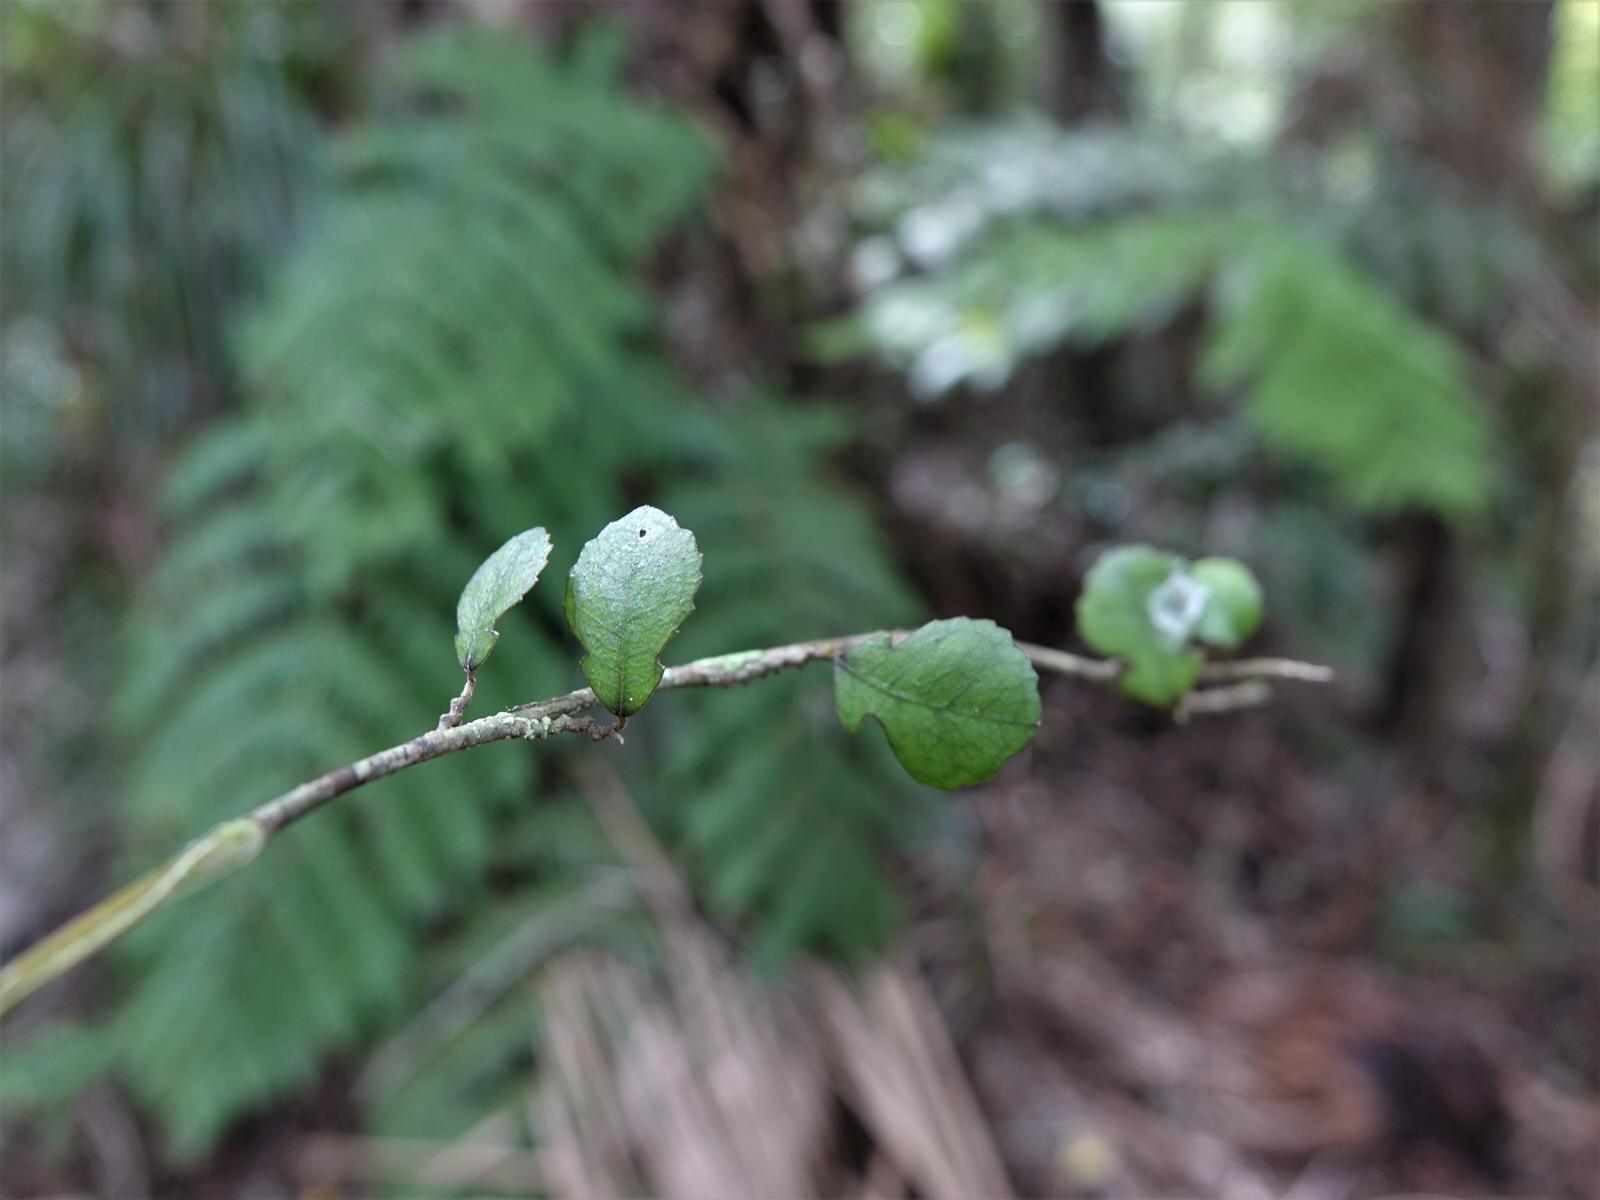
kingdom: Plantae
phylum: Tracheophyta
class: Magnoliopsida
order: Rosales
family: Moraceae
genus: Paratrophis
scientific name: Paratrophis microphylla
